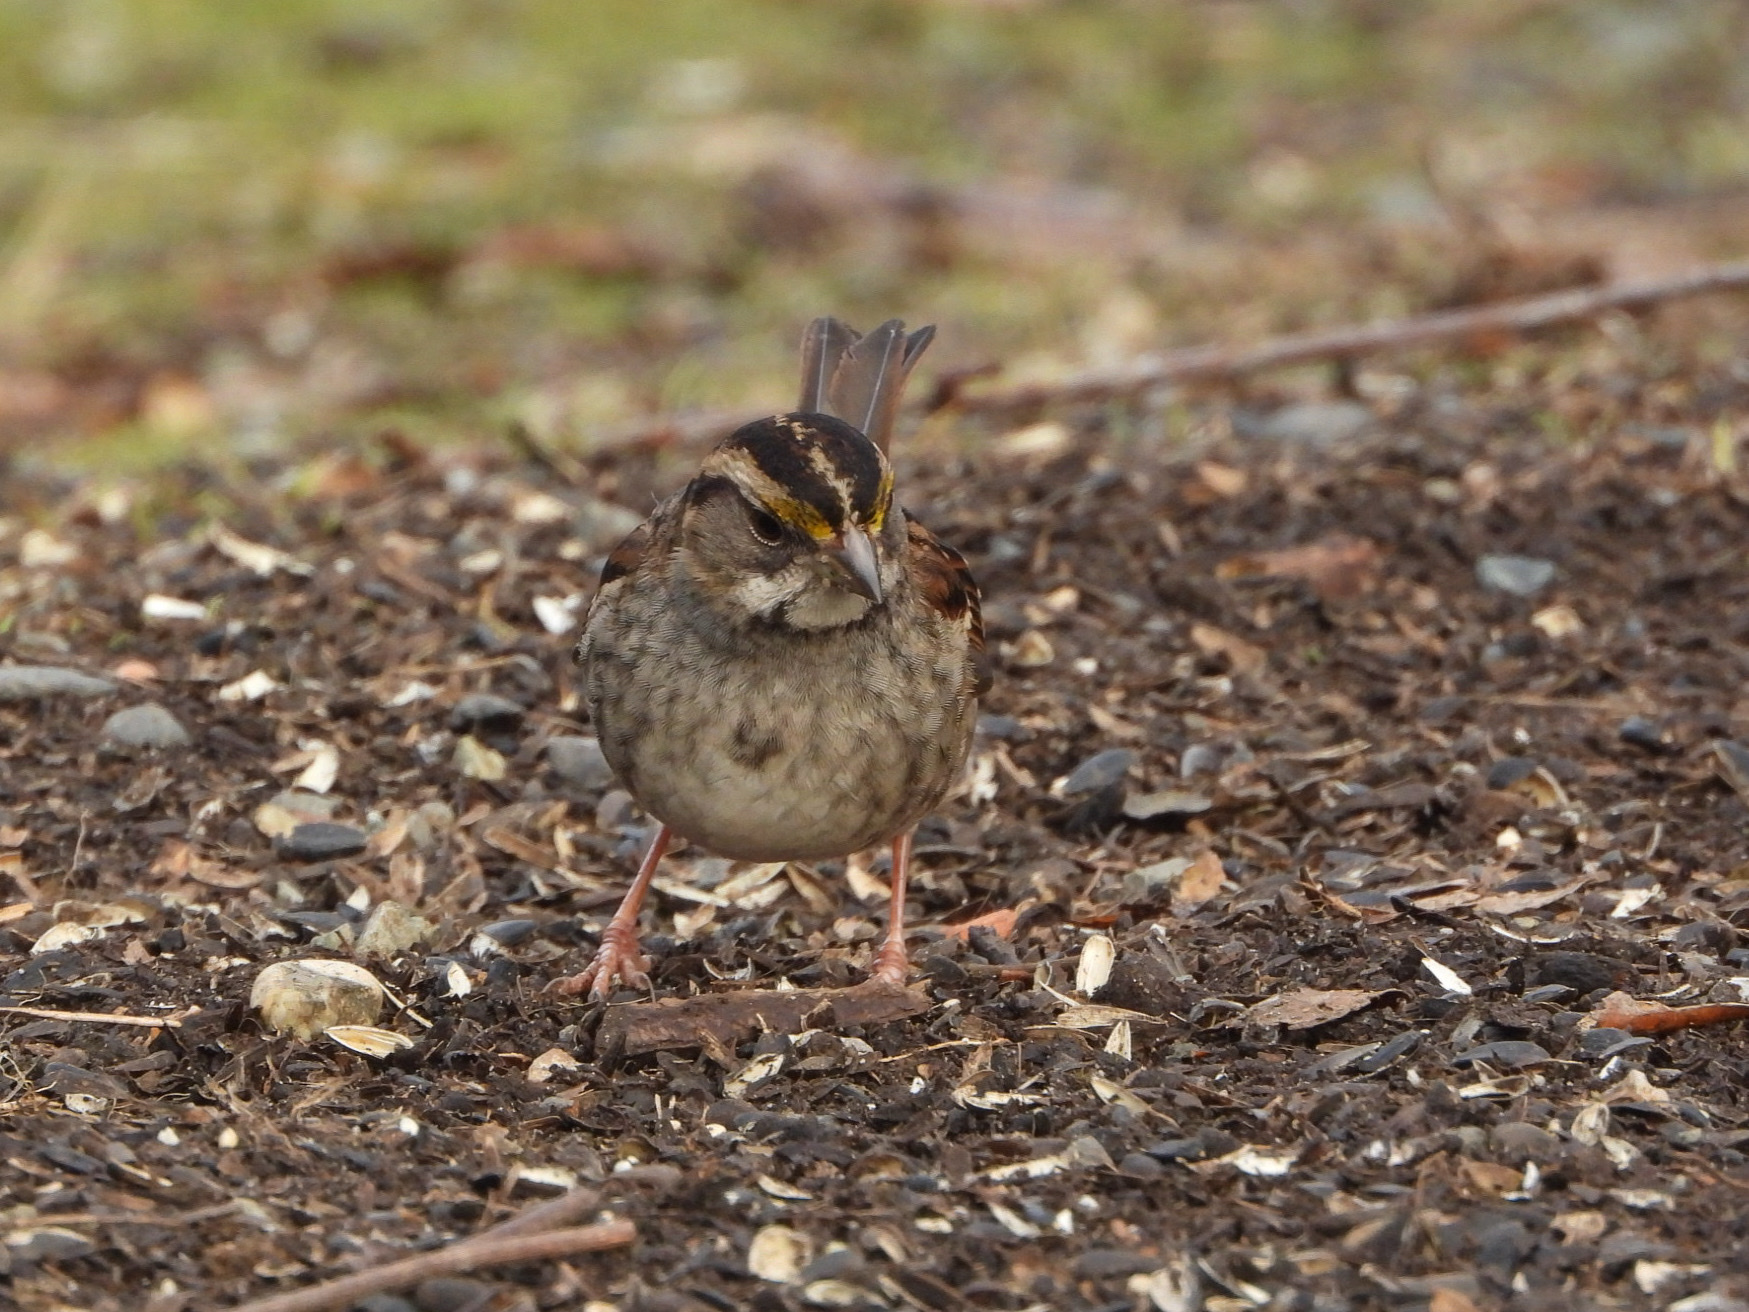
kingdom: Animalia
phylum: Chordata
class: Aves
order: Passeriformes
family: Passerellidae
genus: Zonotrichia
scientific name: Zonotrichia albicollis
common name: White-throated sparrow
